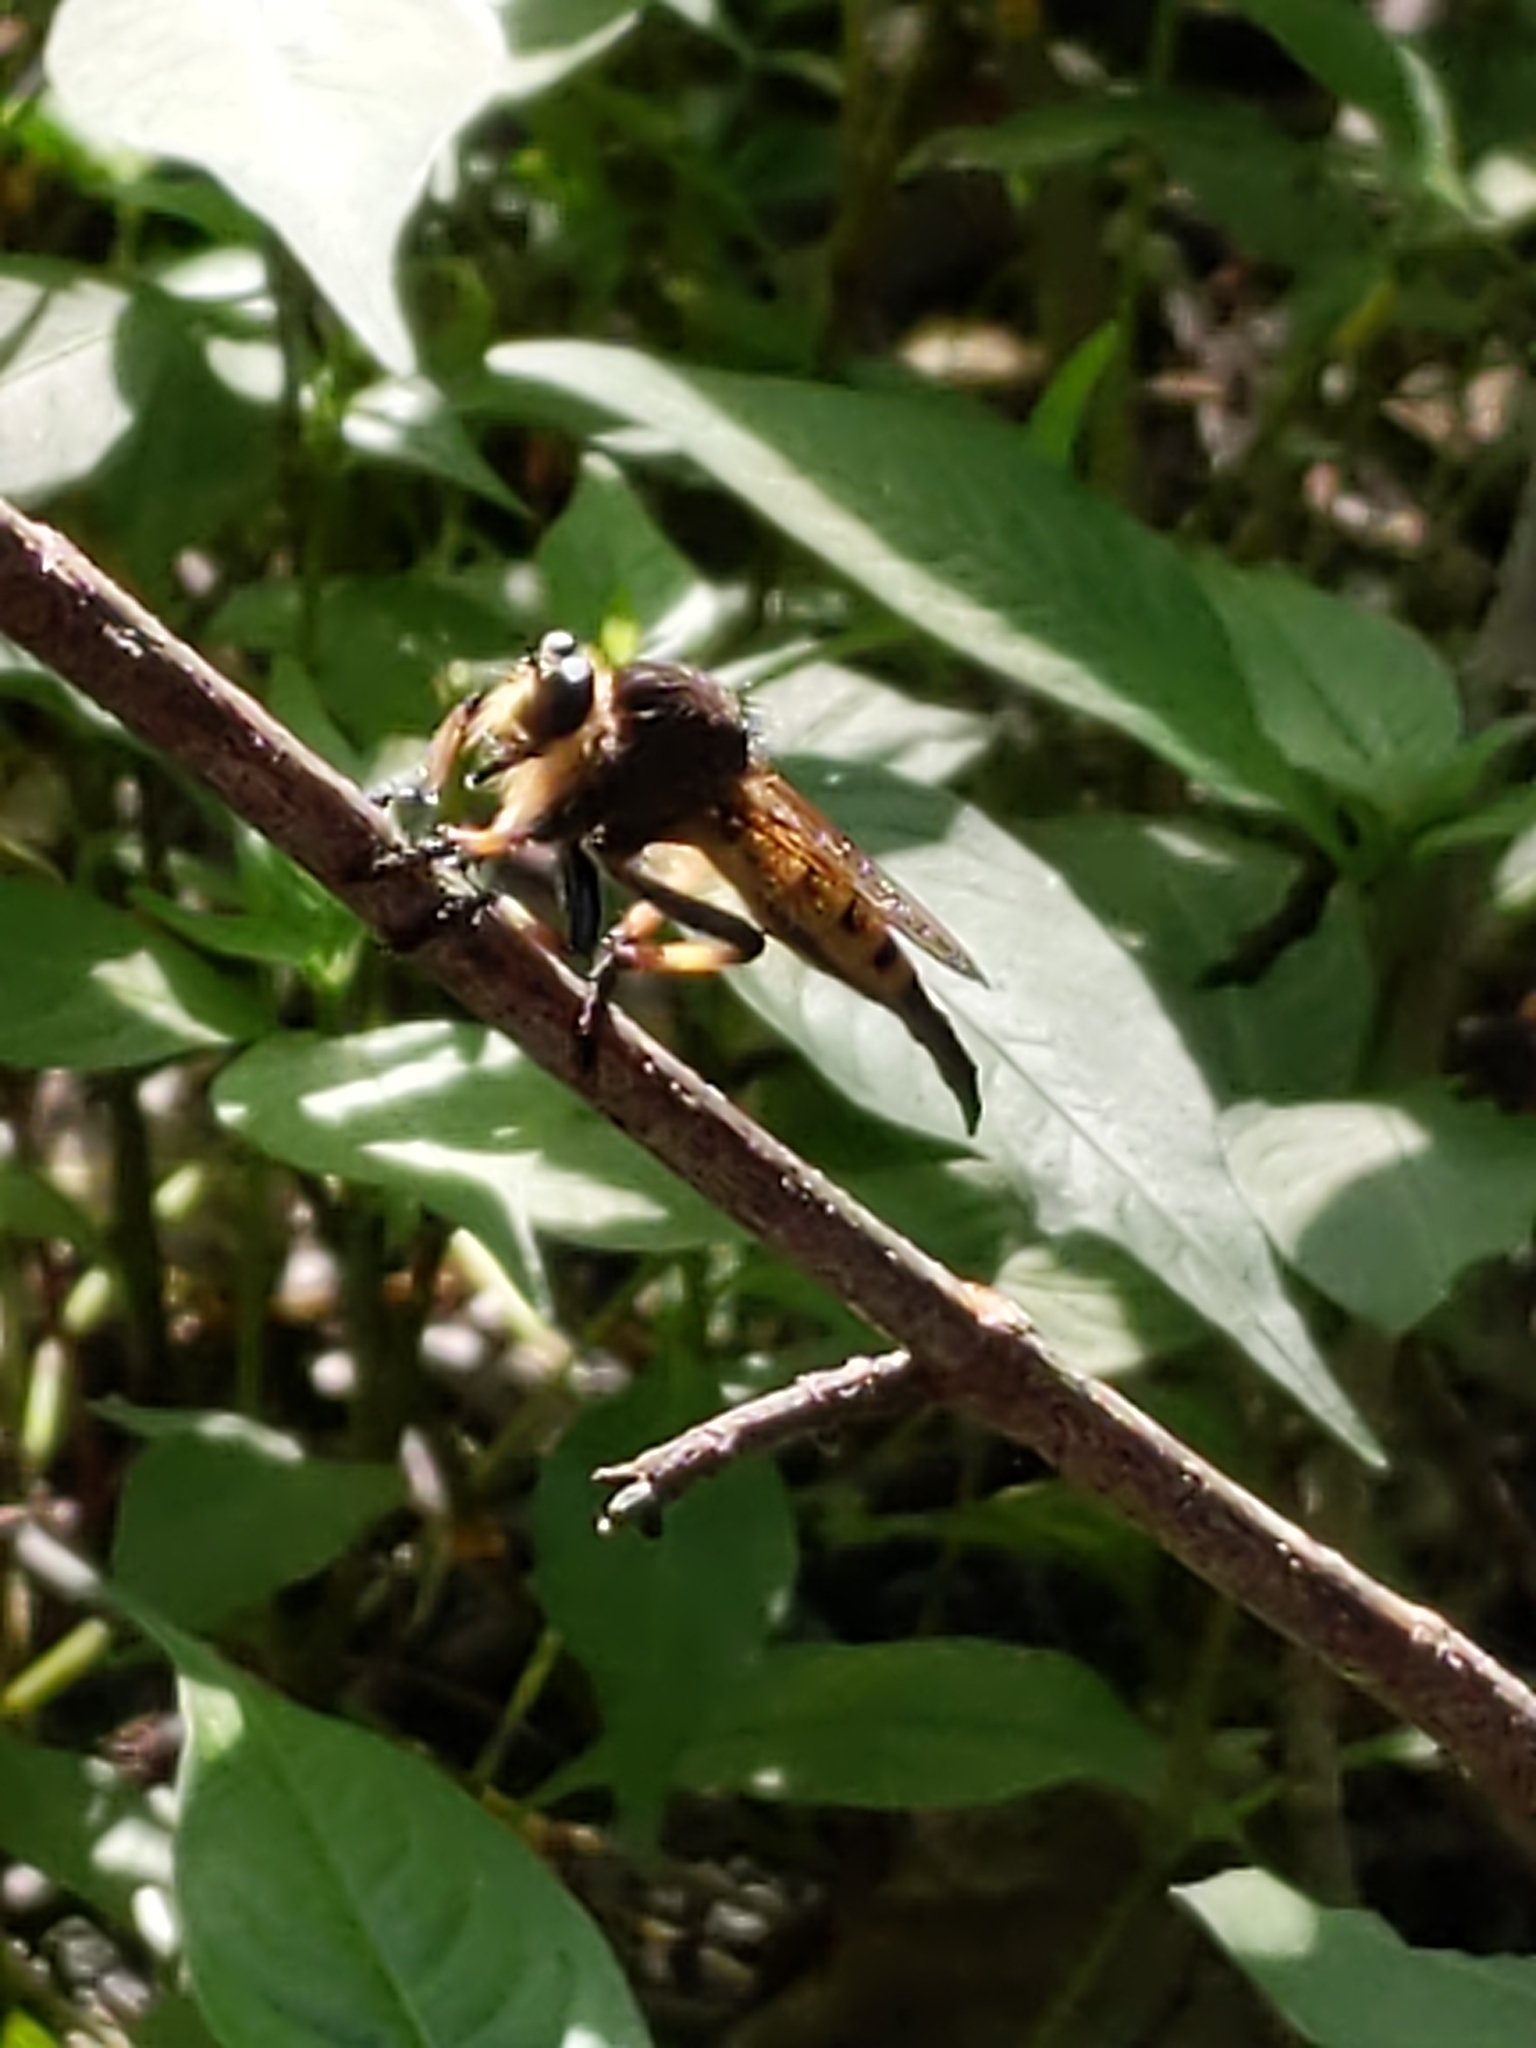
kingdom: Animalia
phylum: Arthropoda
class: Insecta
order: Diptera
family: Asilidae
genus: Promachus
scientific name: Promachus rufipes
